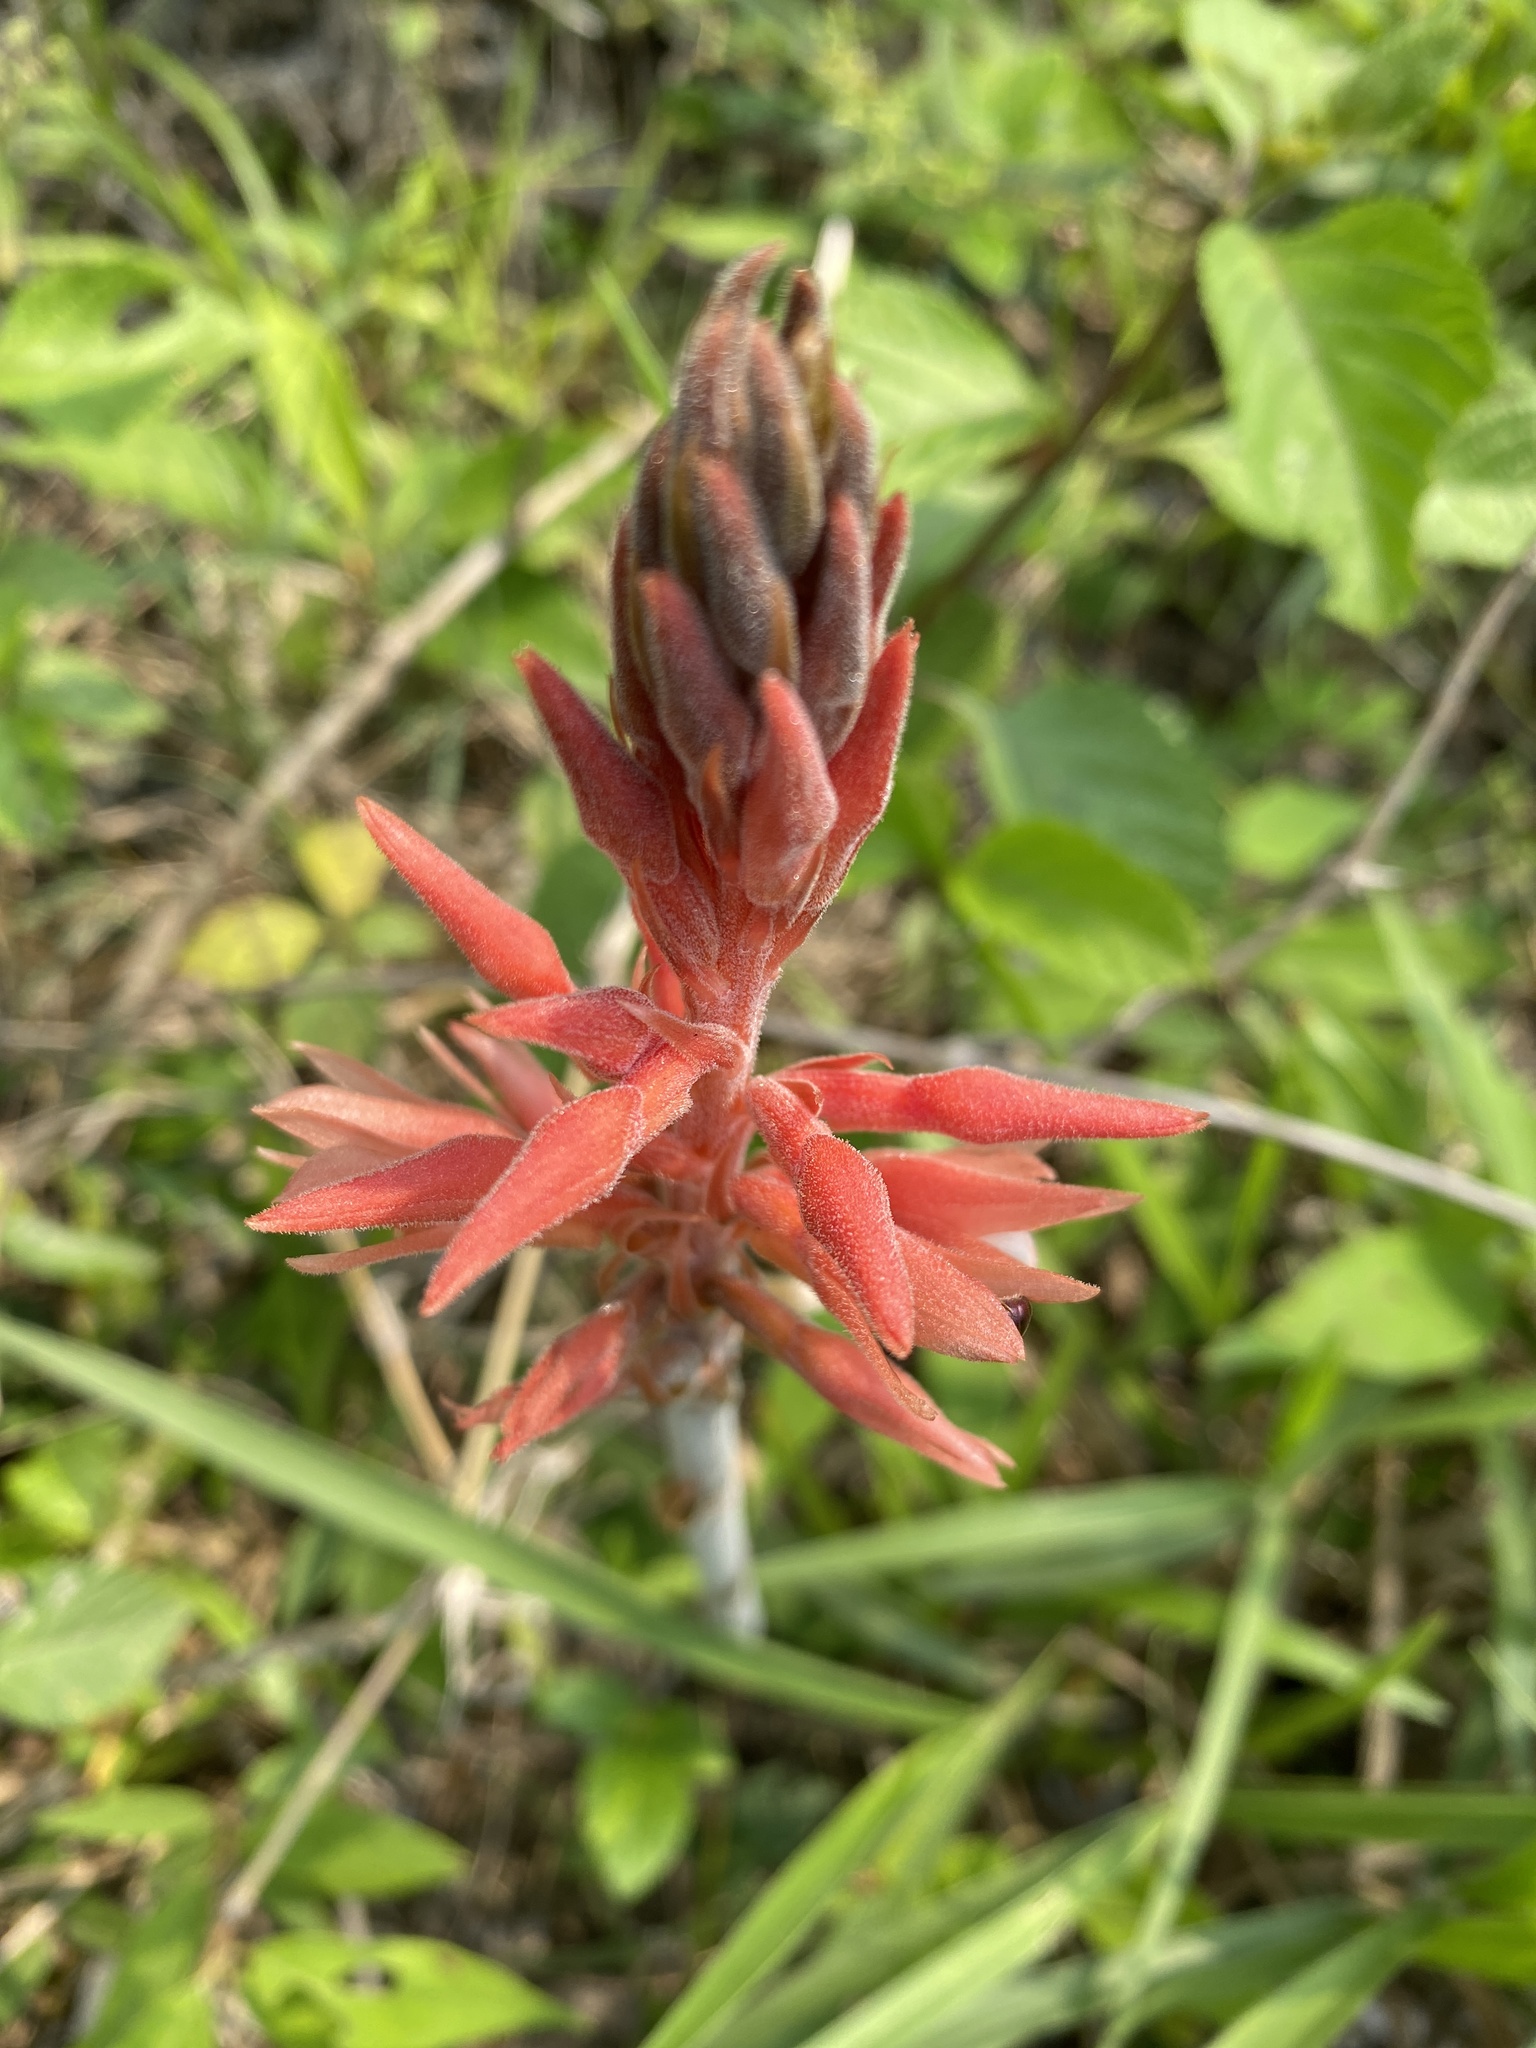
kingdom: Plantae
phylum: Tracheophyta
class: Liliopsida
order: Asparagales
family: Orchidaceae
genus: Sacoila
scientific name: Sacoila lanceolata
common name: Leafless beaked ladiestresses
